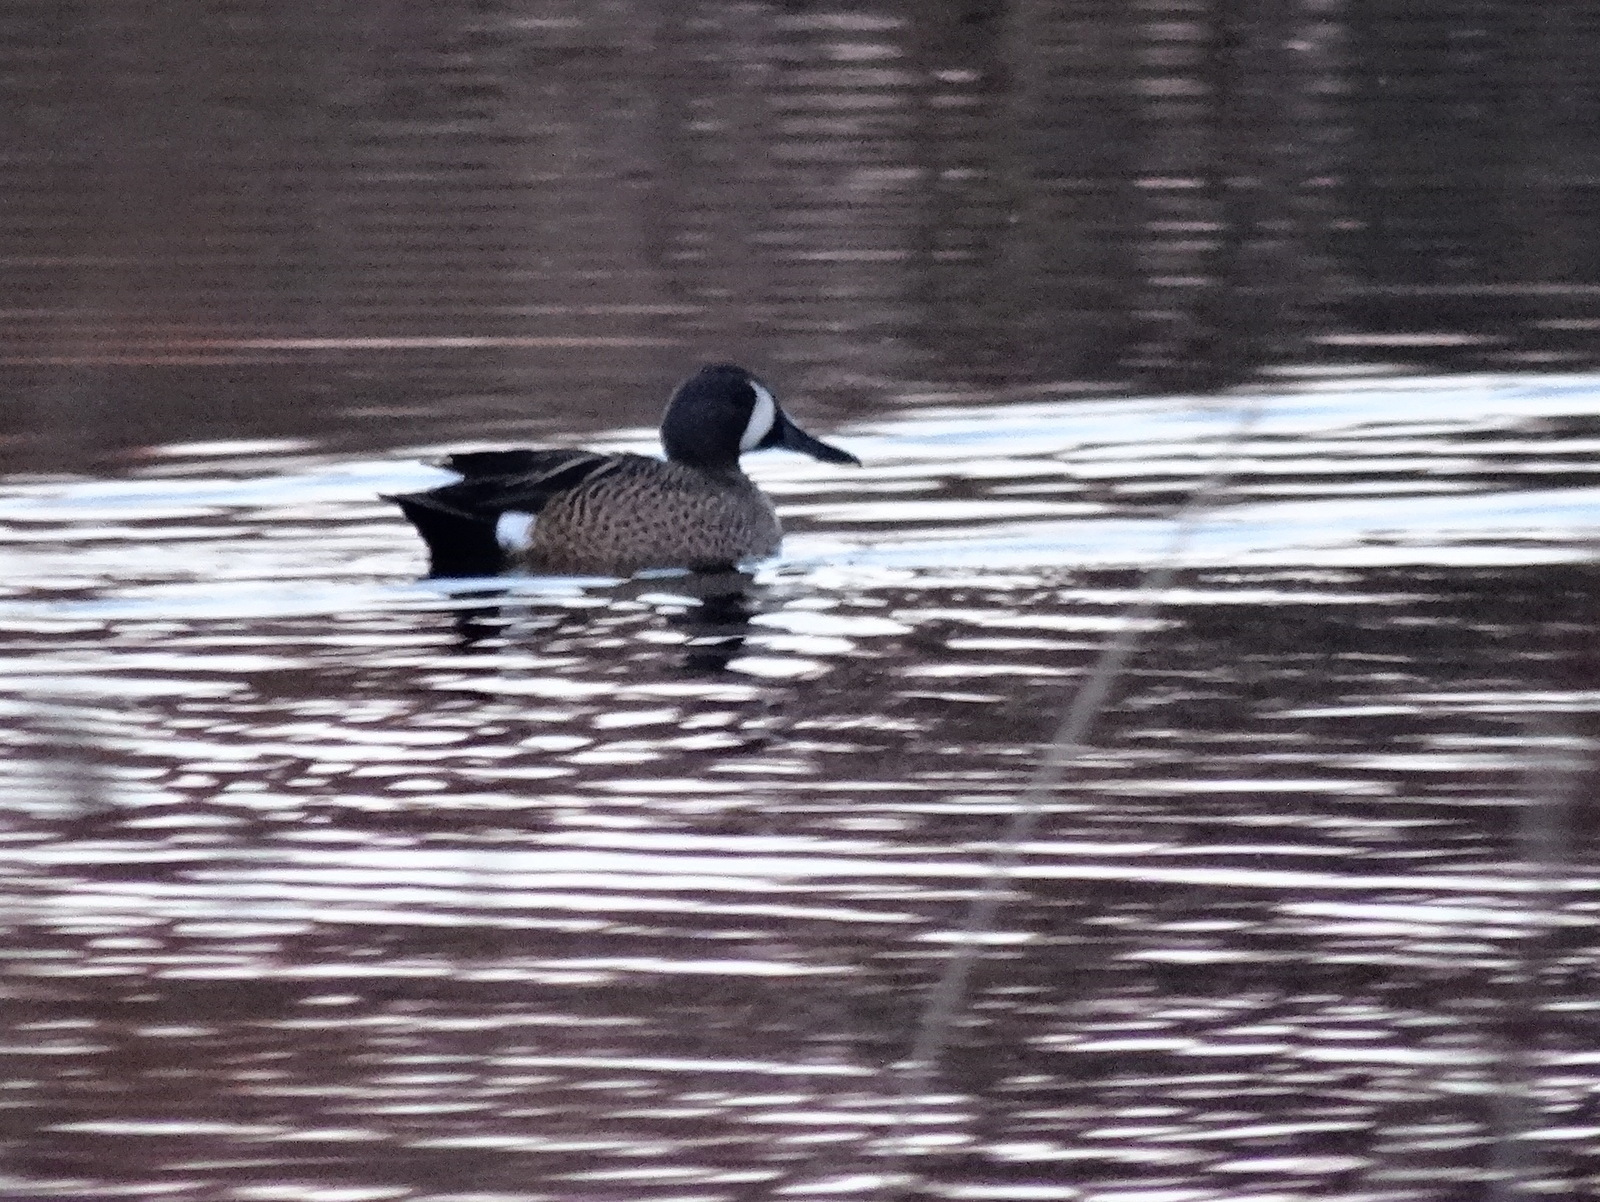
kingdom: Animalia
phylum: Chordata
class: Aves
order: Anseriformes
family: Anatidae
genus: Spatula
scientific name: Spatula discors
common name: Blue-winged teal
